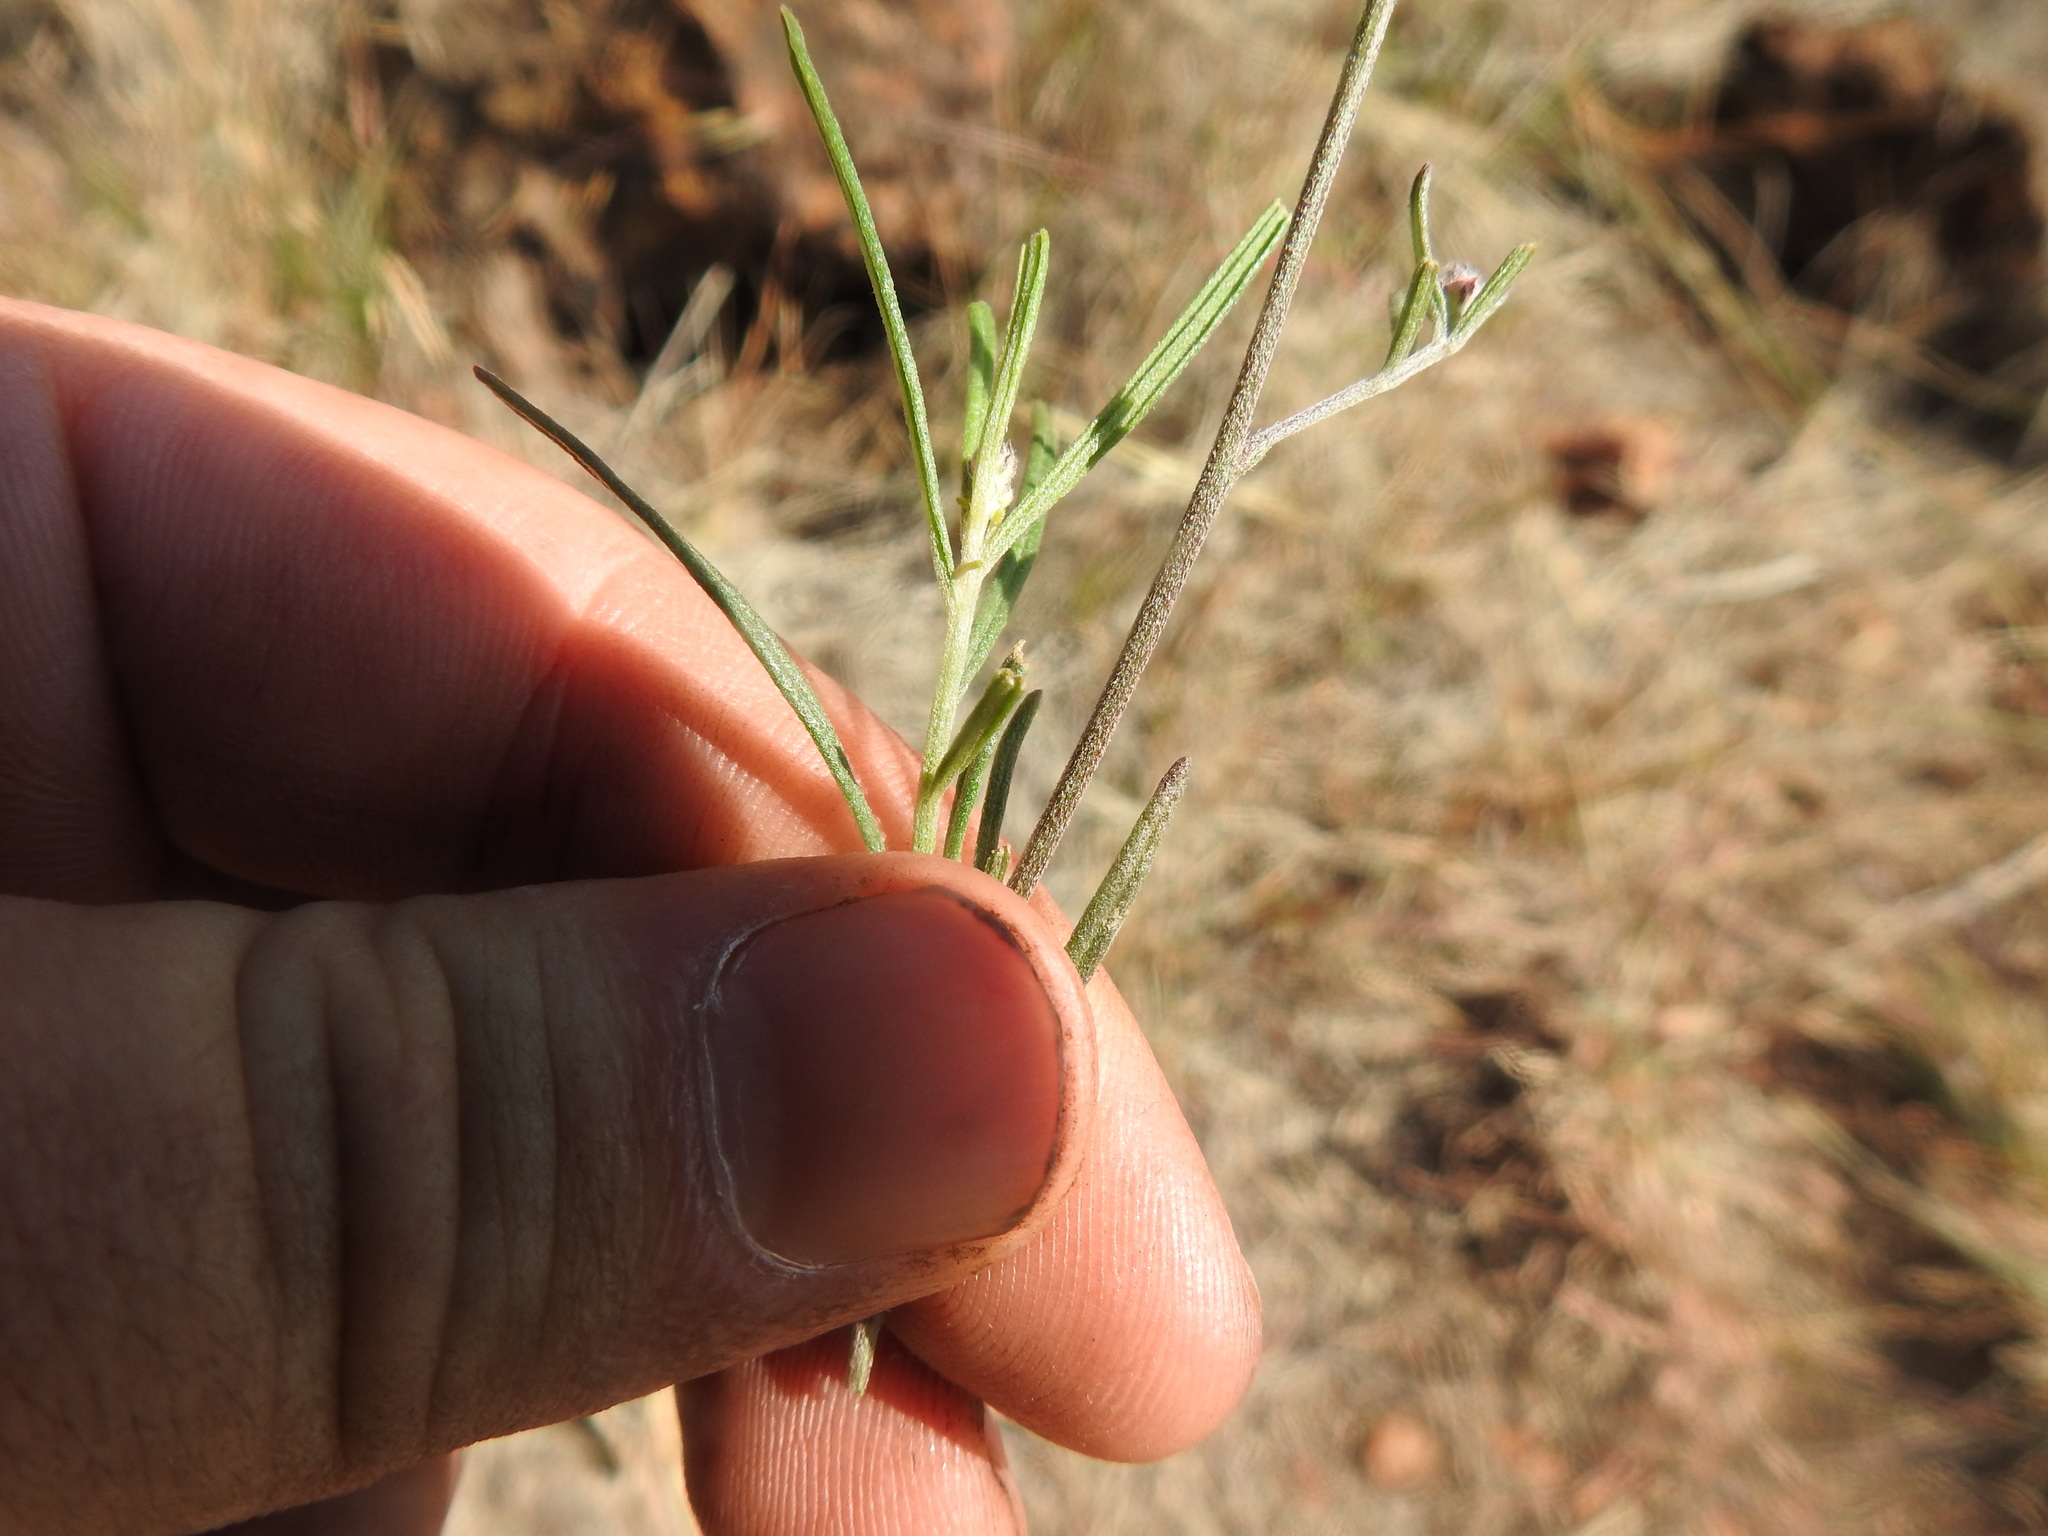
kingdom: Plantae
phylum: Tracheophyta
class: Magnoliopsida
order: Asterales
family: Asteraceae
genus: Crystallopollen
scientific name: Crystallopollen angustifolium
